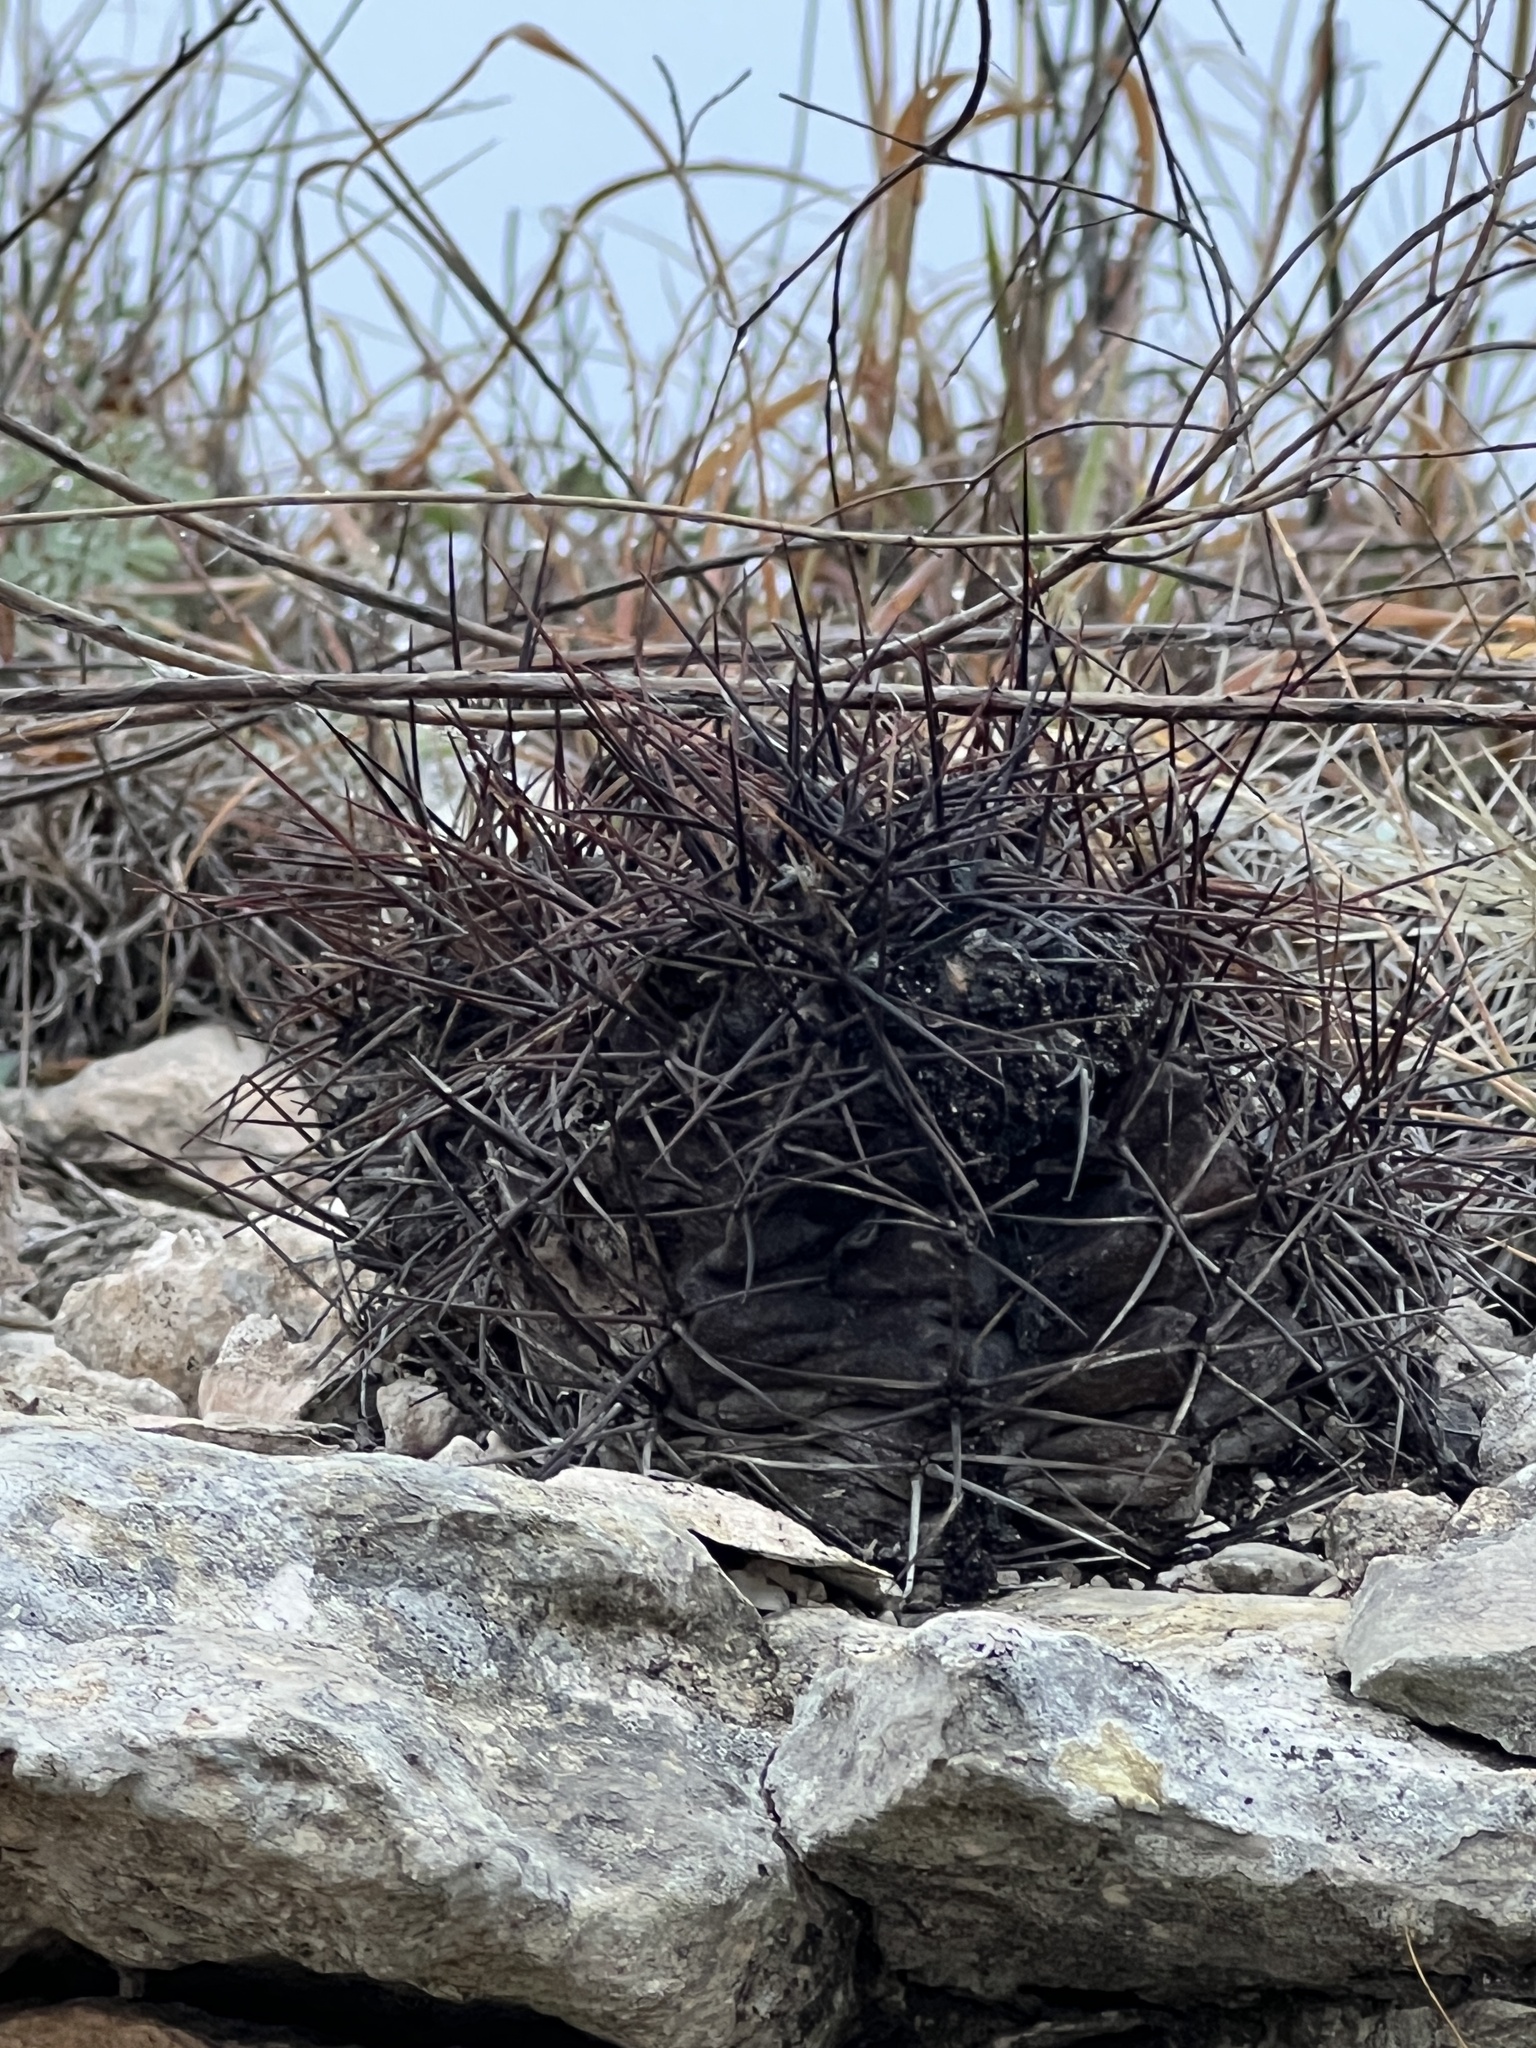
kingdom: Plantae
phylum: Tracheophyta
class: Magnoliopsida
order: Caryophyllales
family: Cactaceae
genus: Bisnaga
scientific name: Bisnaga hamatacantha
